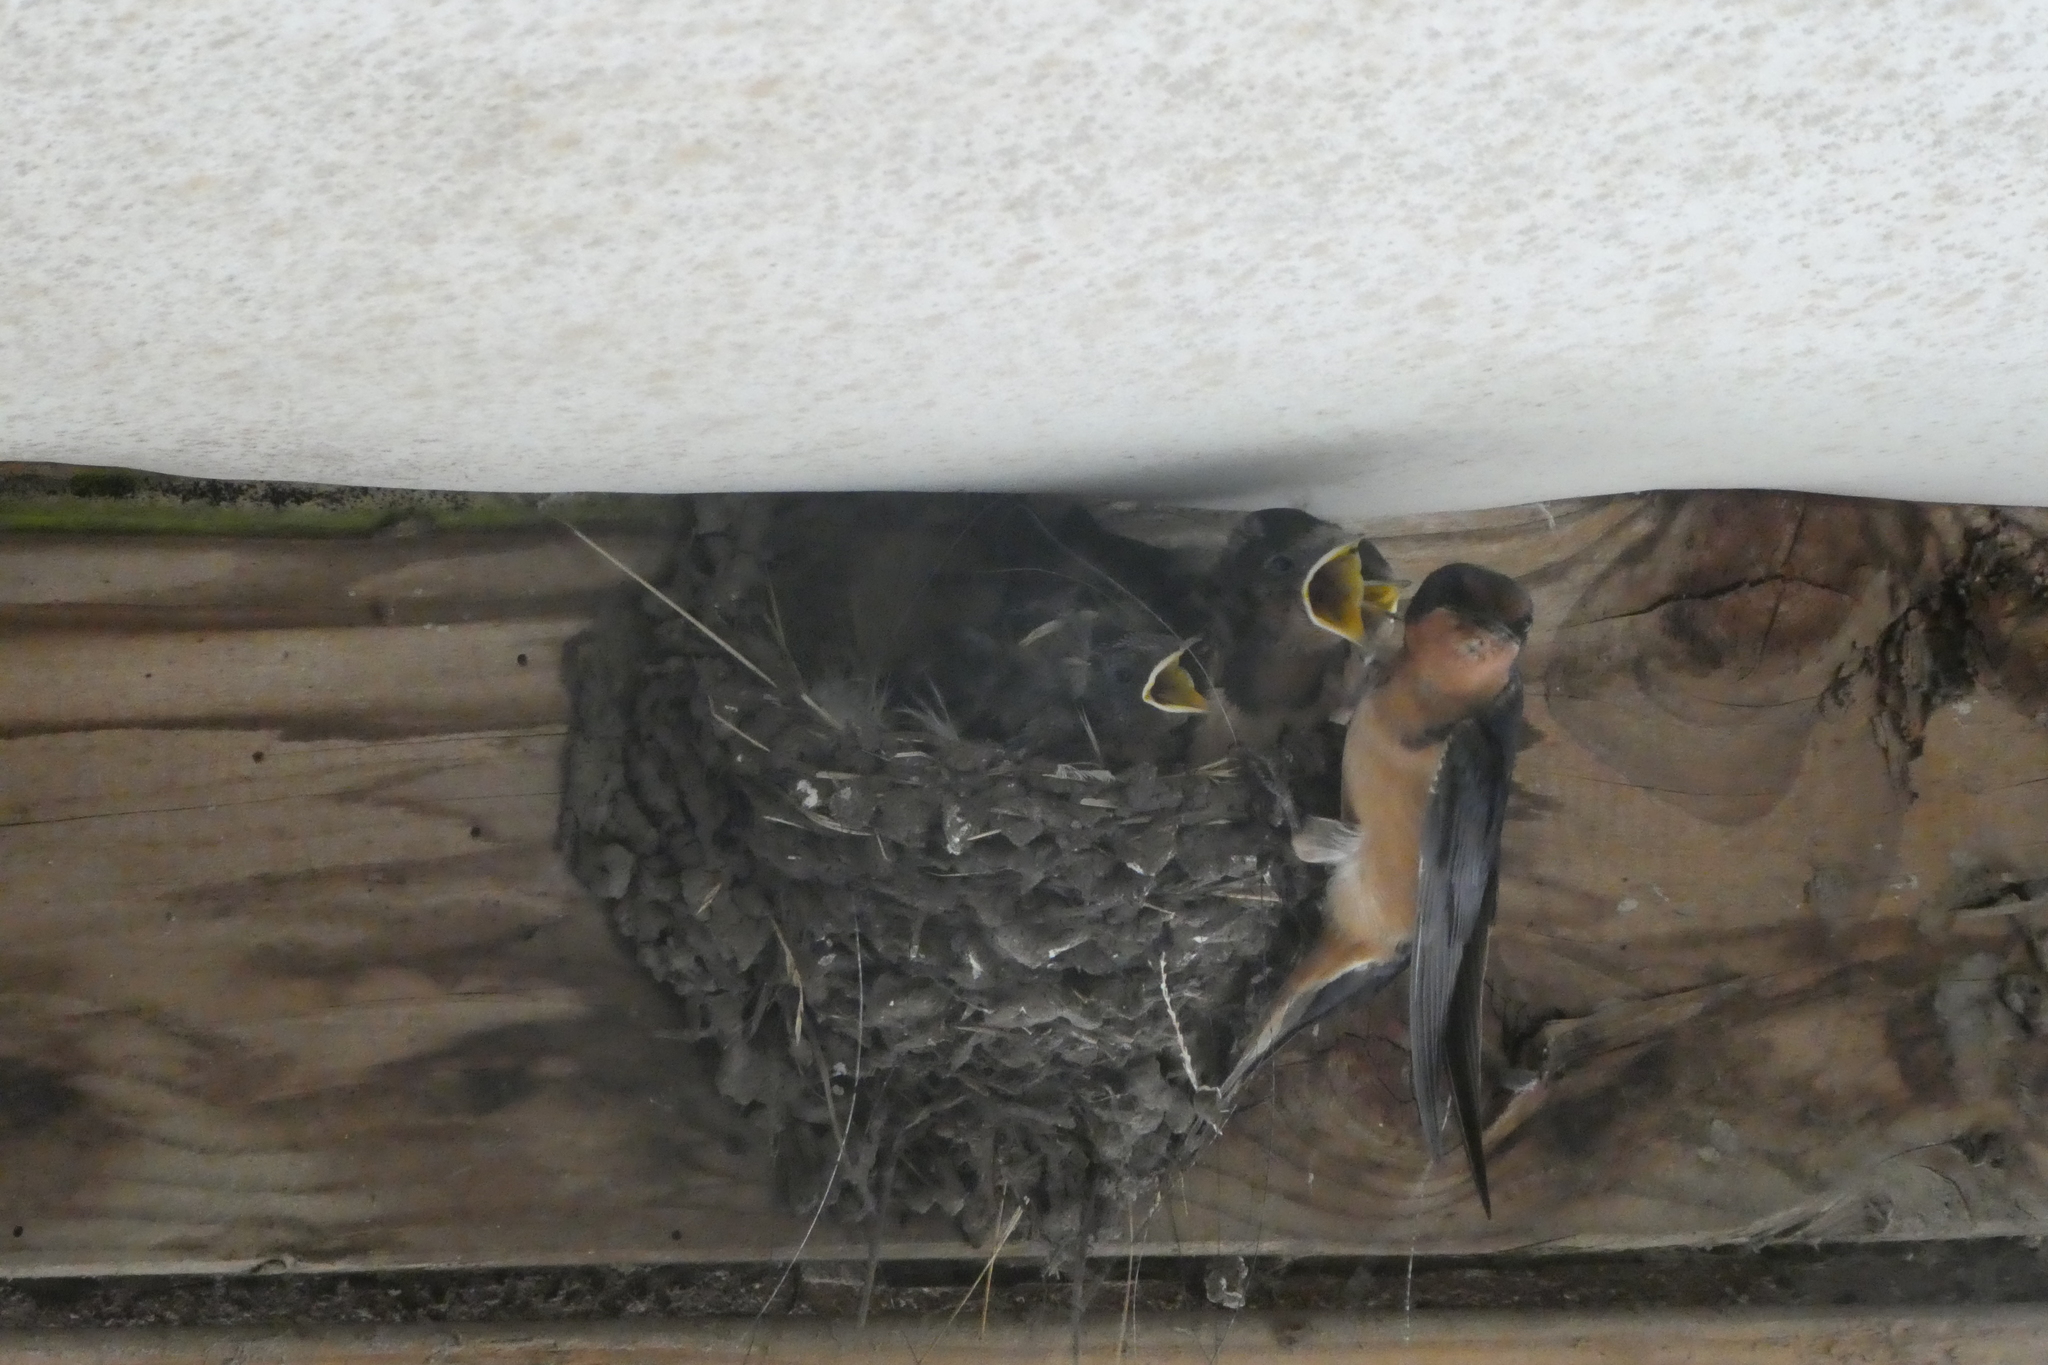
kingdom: Animalia
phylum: Chordata
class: Aves
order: Passeriformes
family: Hirundinidae
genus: Hirundo
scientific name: Hirundo rustica
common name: Barn swallow
